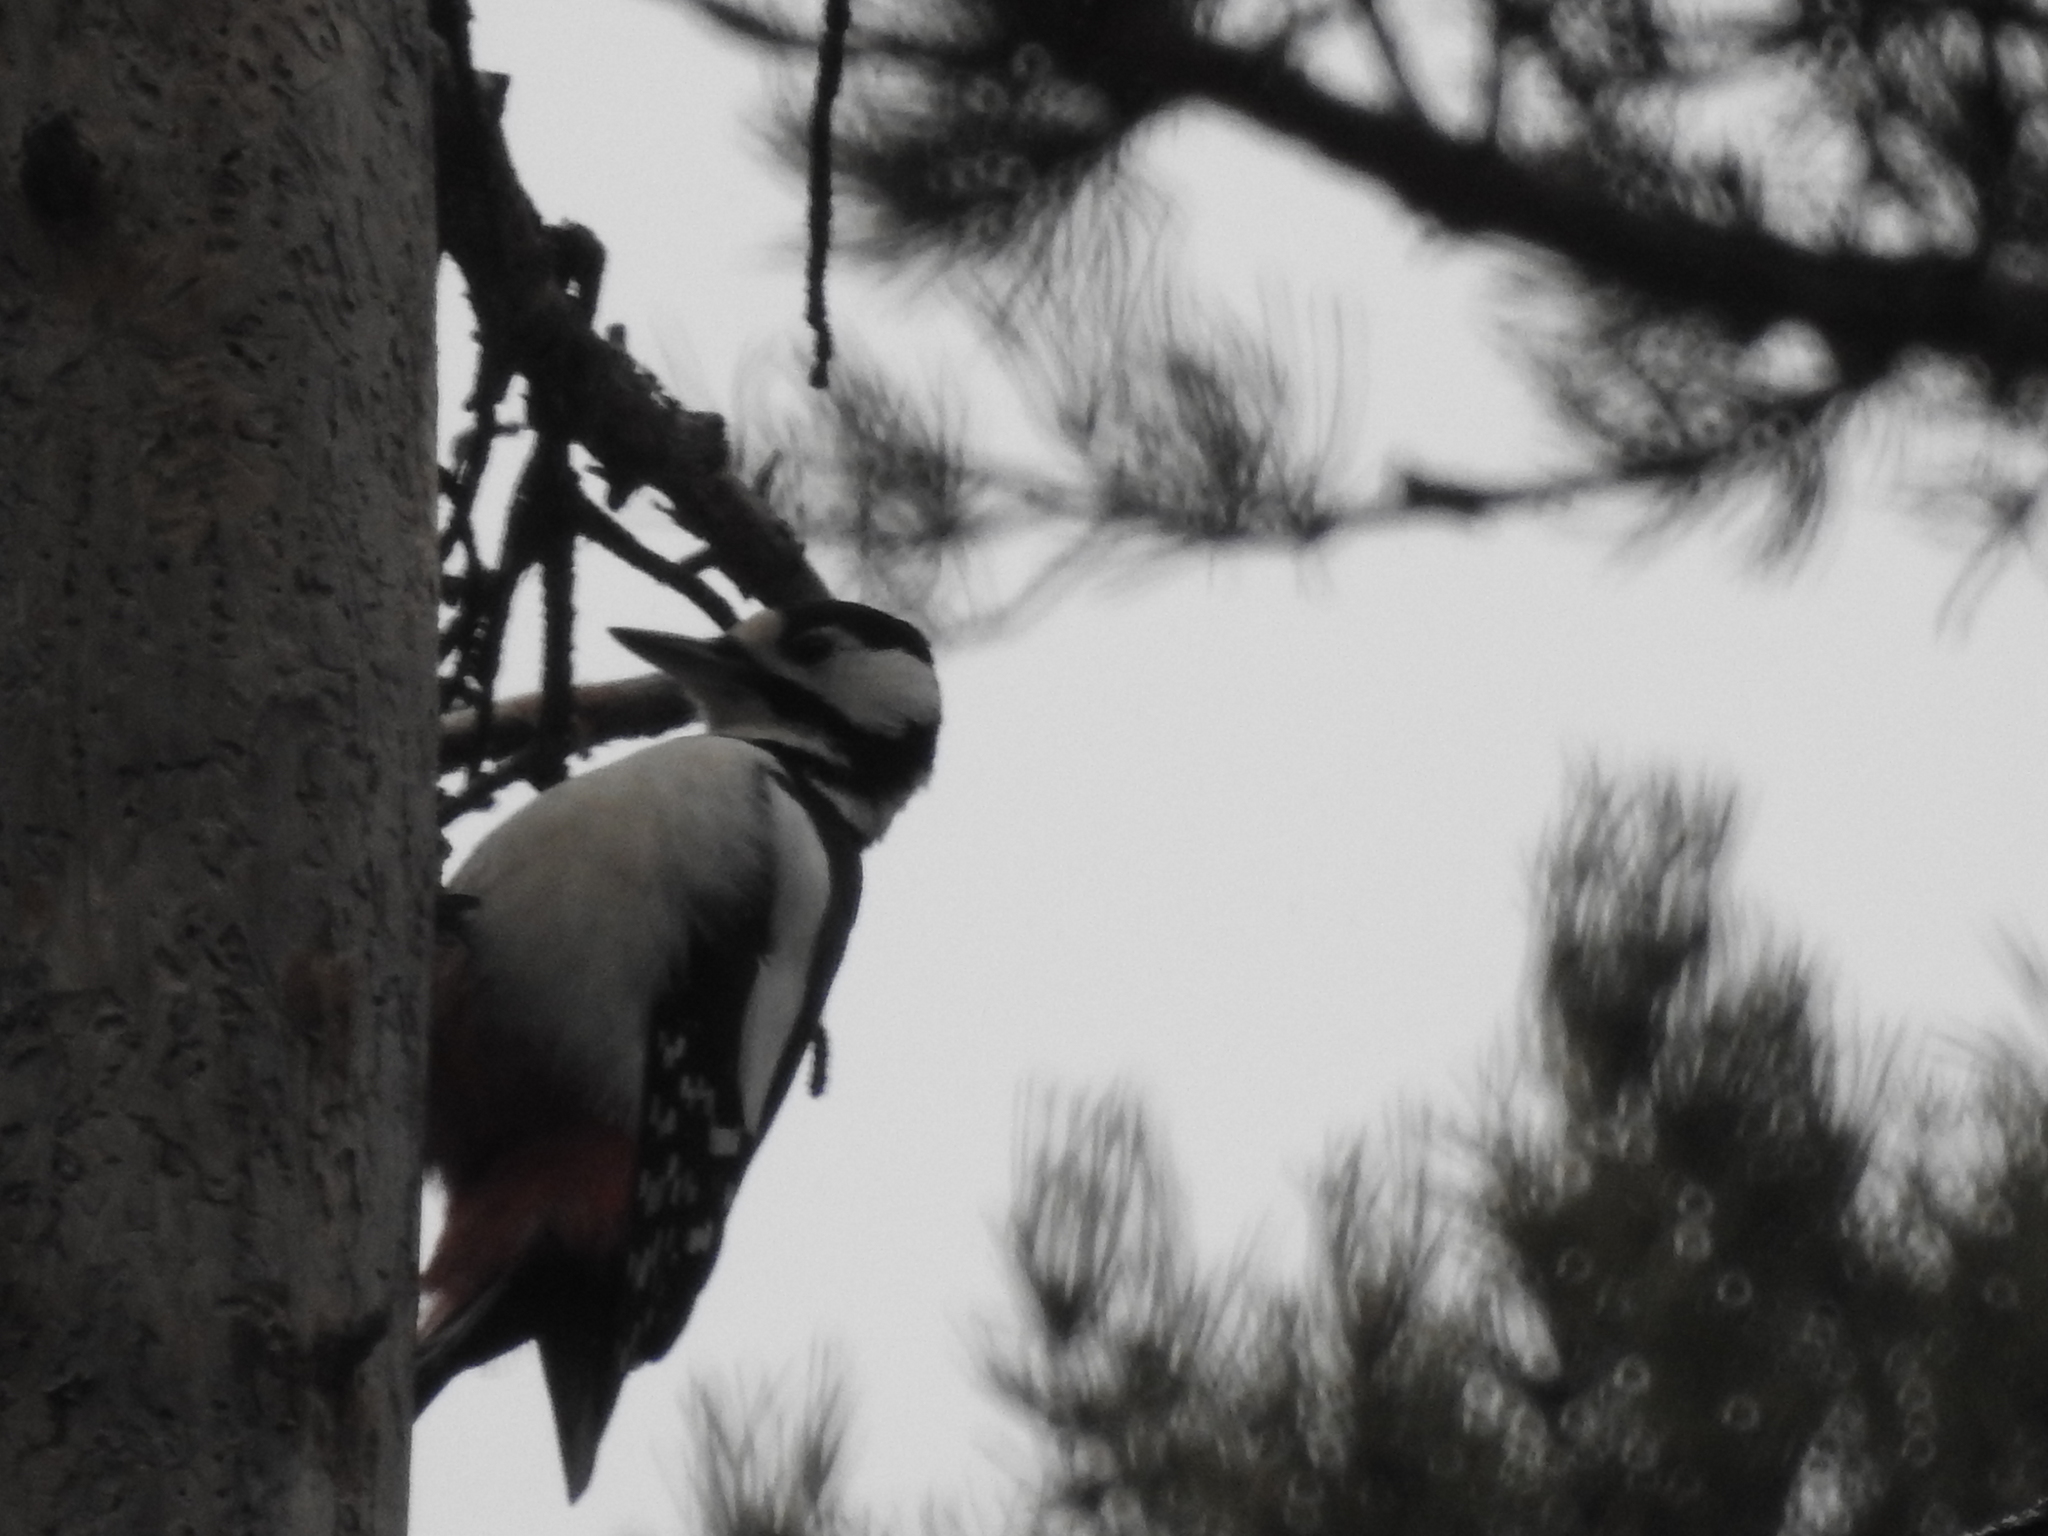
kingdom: Animalia
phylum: Chordata
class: Aves
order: Piciformes
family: Picidae
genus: Dendrocopos
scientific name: Dendrocopos major
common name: Great spotted woodpecker
